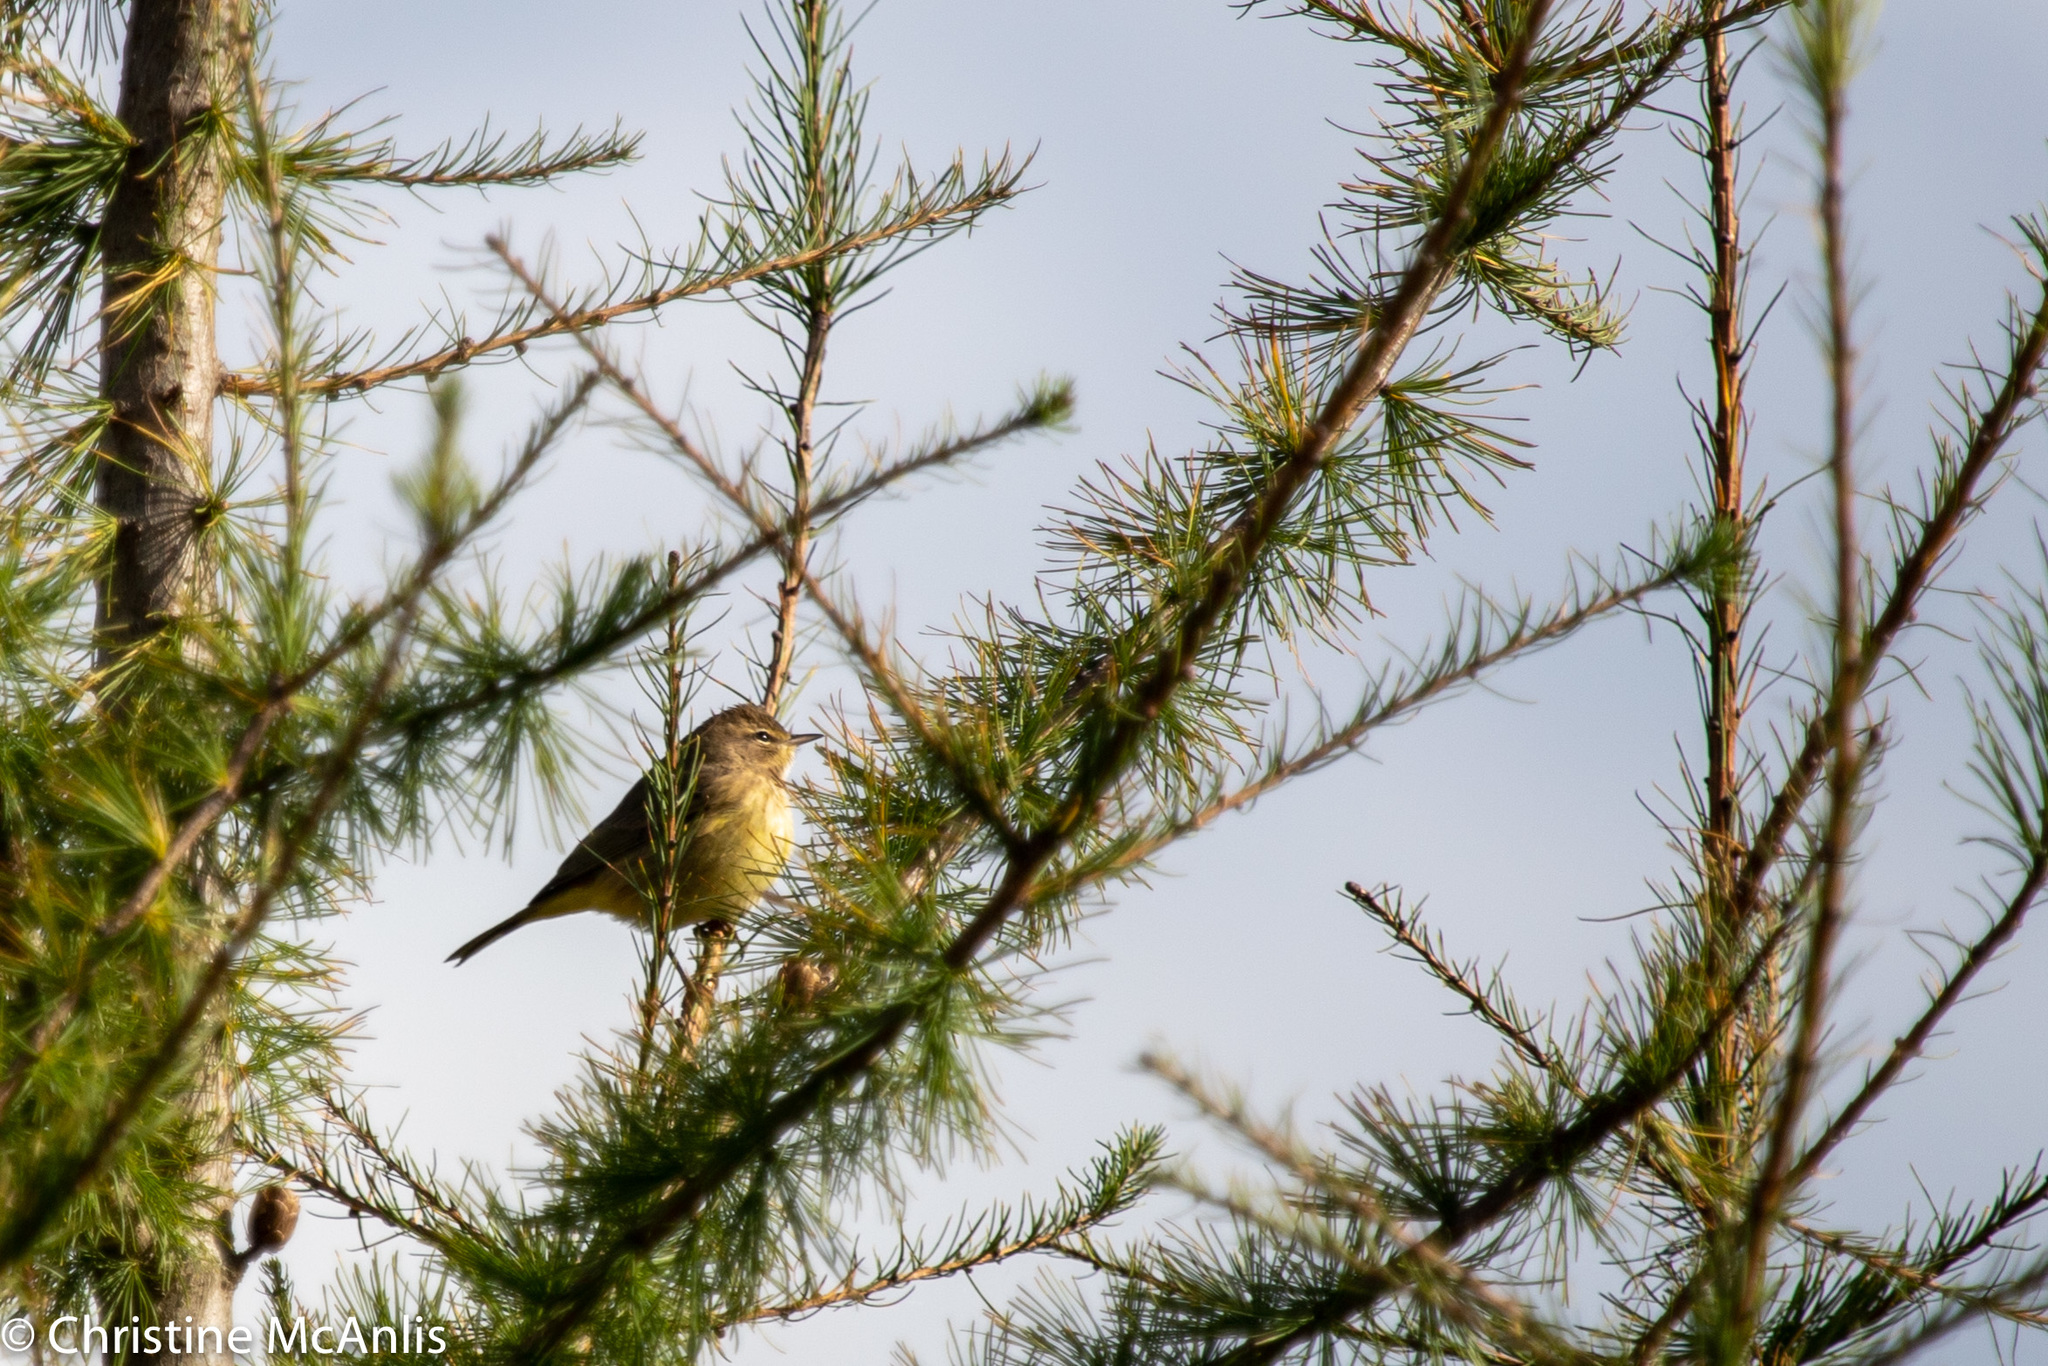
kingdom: Animalia
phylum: Chordata
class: Aves
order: Passeriformes
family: Parulidae
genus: Setophaga
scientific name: Setophaga palmarum
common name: Palm warbler
